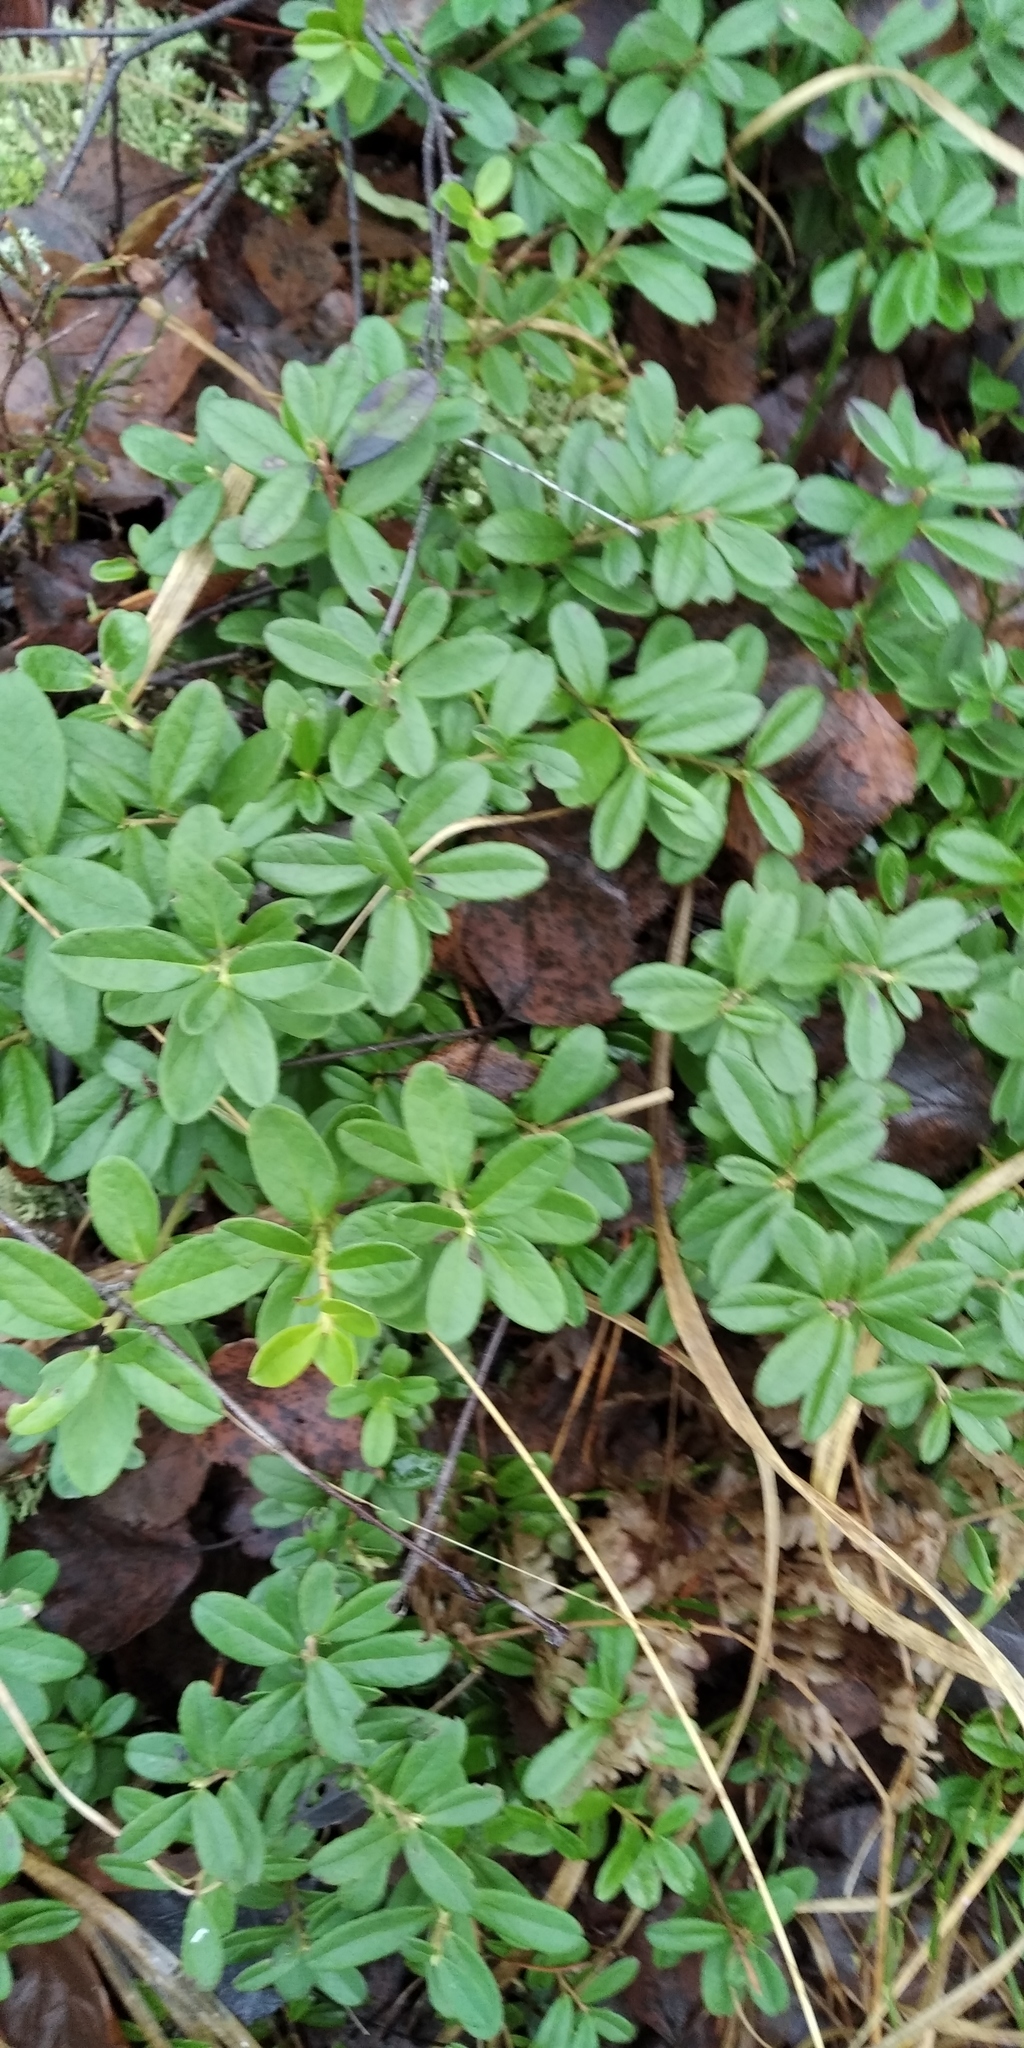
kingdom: Plantae
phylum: Tracheophyta
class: Magnoliopsida
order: Ericales
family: Ericaceae
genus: Vaccinium
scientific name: Vaccinium vitis-idaea
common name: Cowberry
